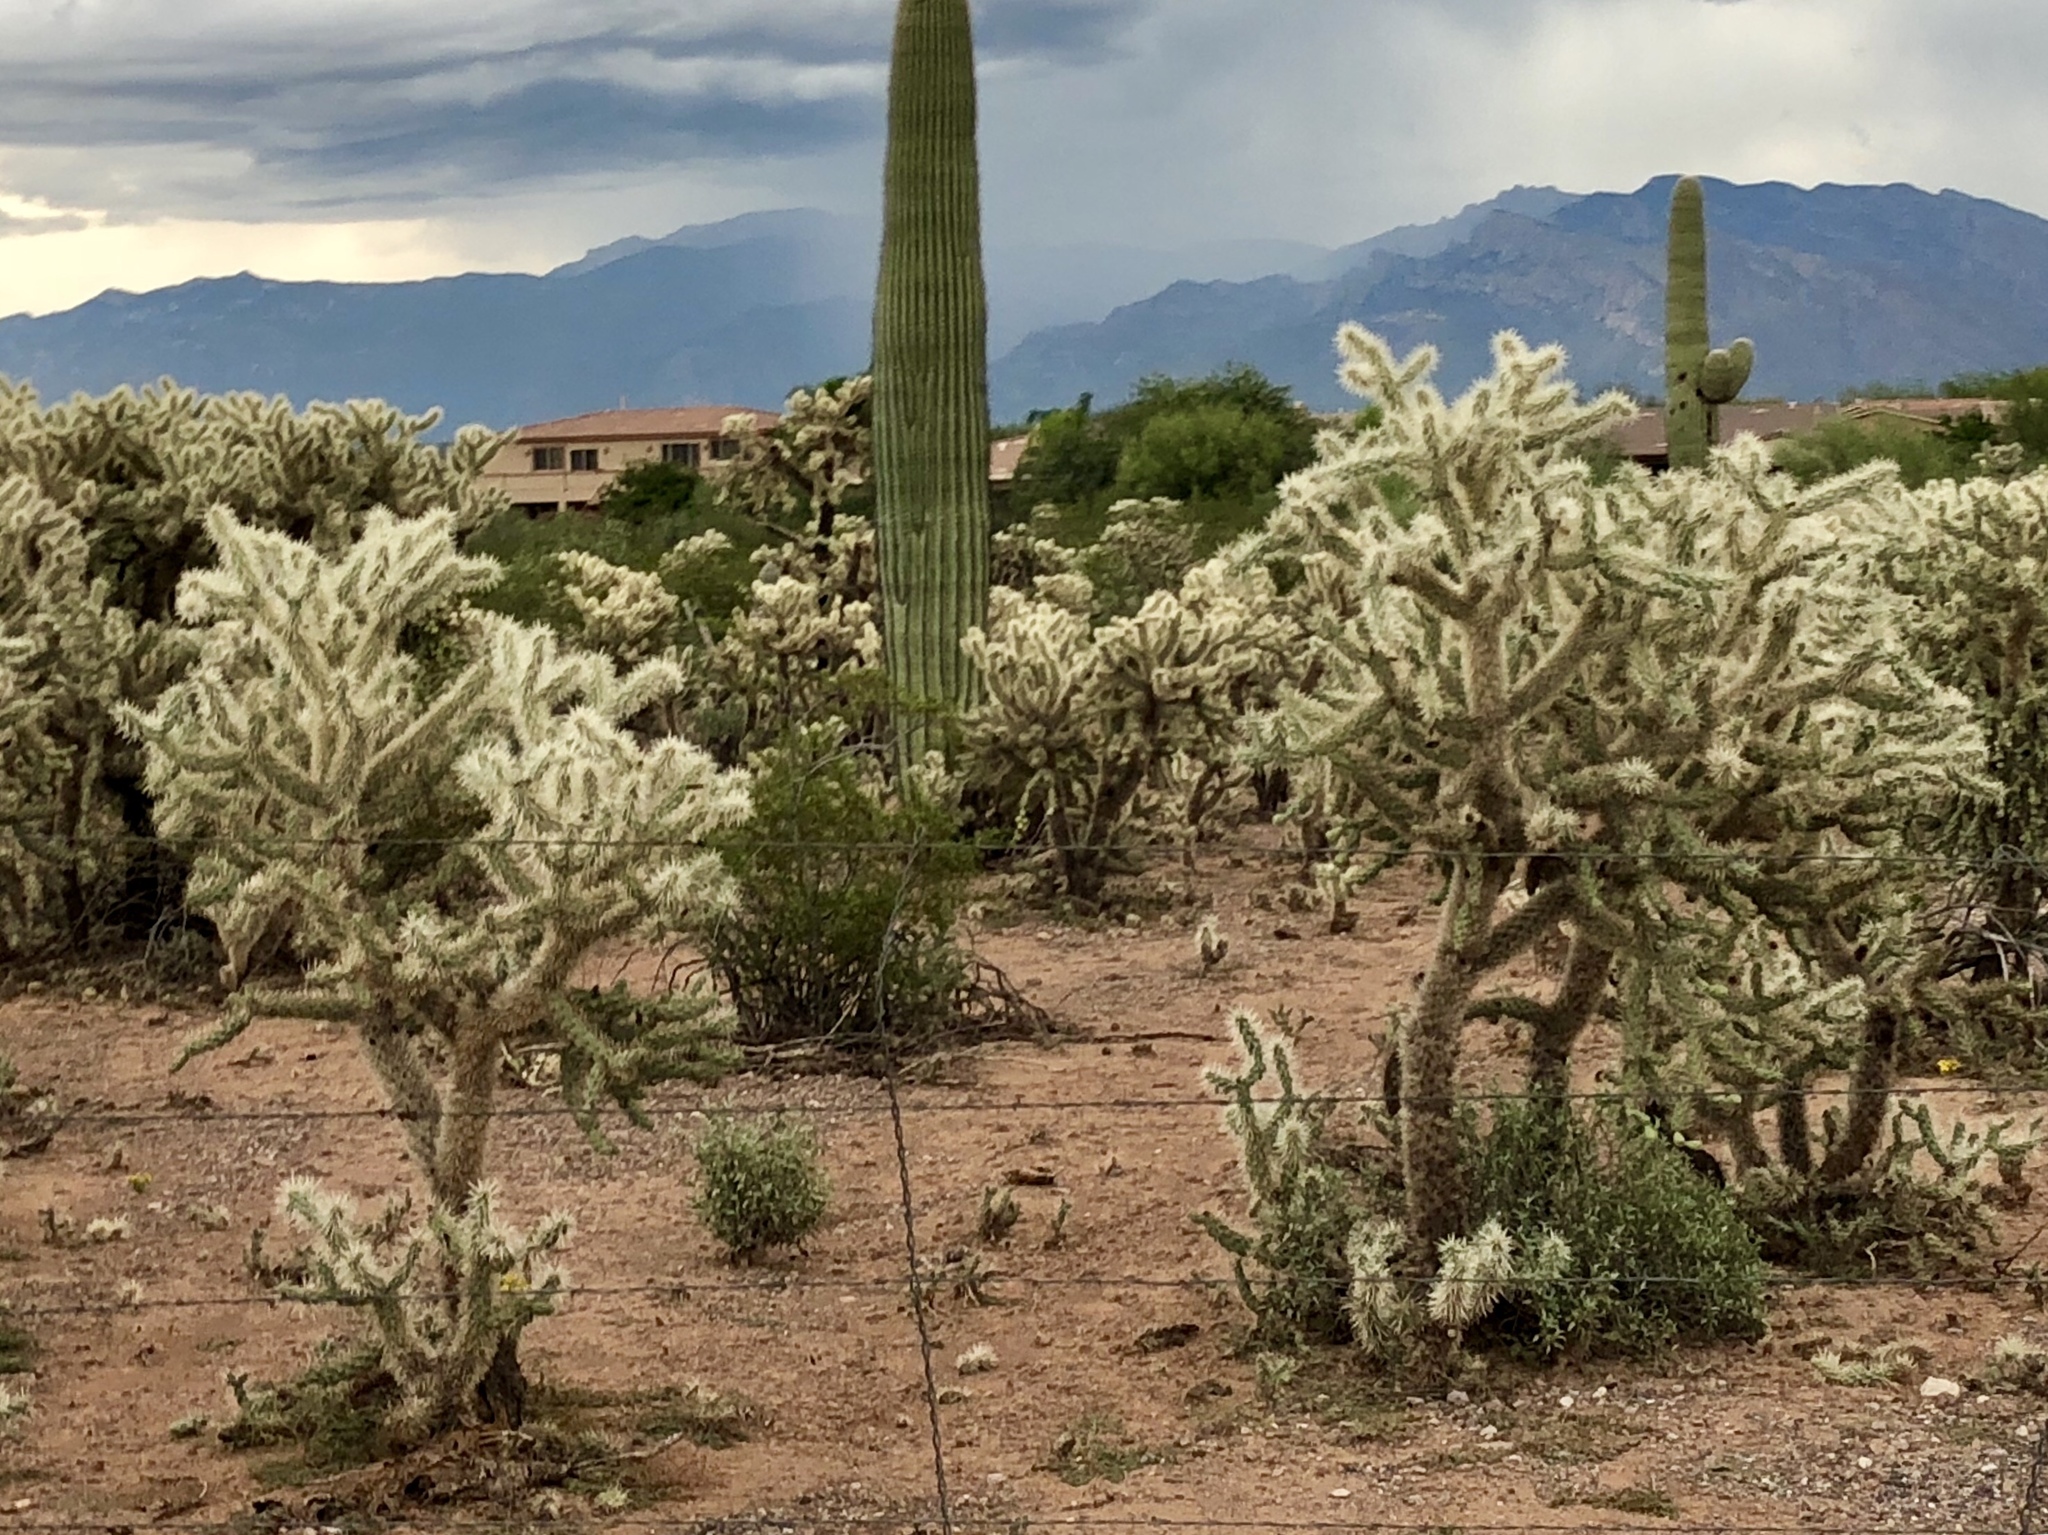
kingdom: Plantae
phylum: Tracheophyta
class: Magnoliopsida
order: Caryophyllales
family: Cactaceae
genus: Cylindropuntia
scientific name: Cylindropuntia fulgida
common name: Jumping cholla
